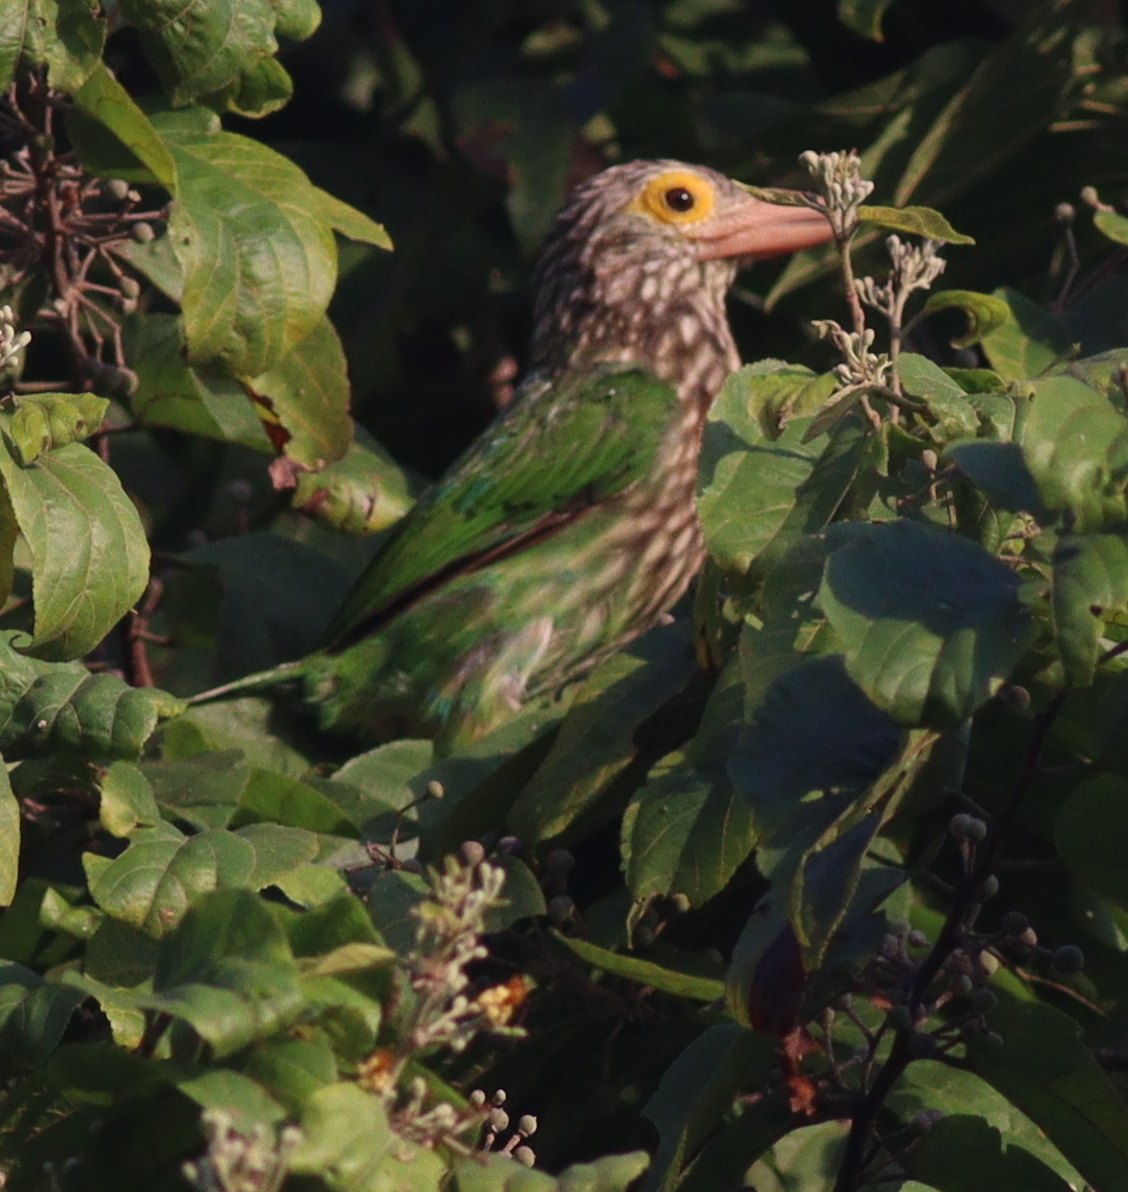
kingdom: Animalia
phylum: Chordata
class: Aves
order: Piciformes
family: Megalaimidae
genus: Psilopogon
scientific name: Psilopogon lineatus
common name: Lineated barbet
